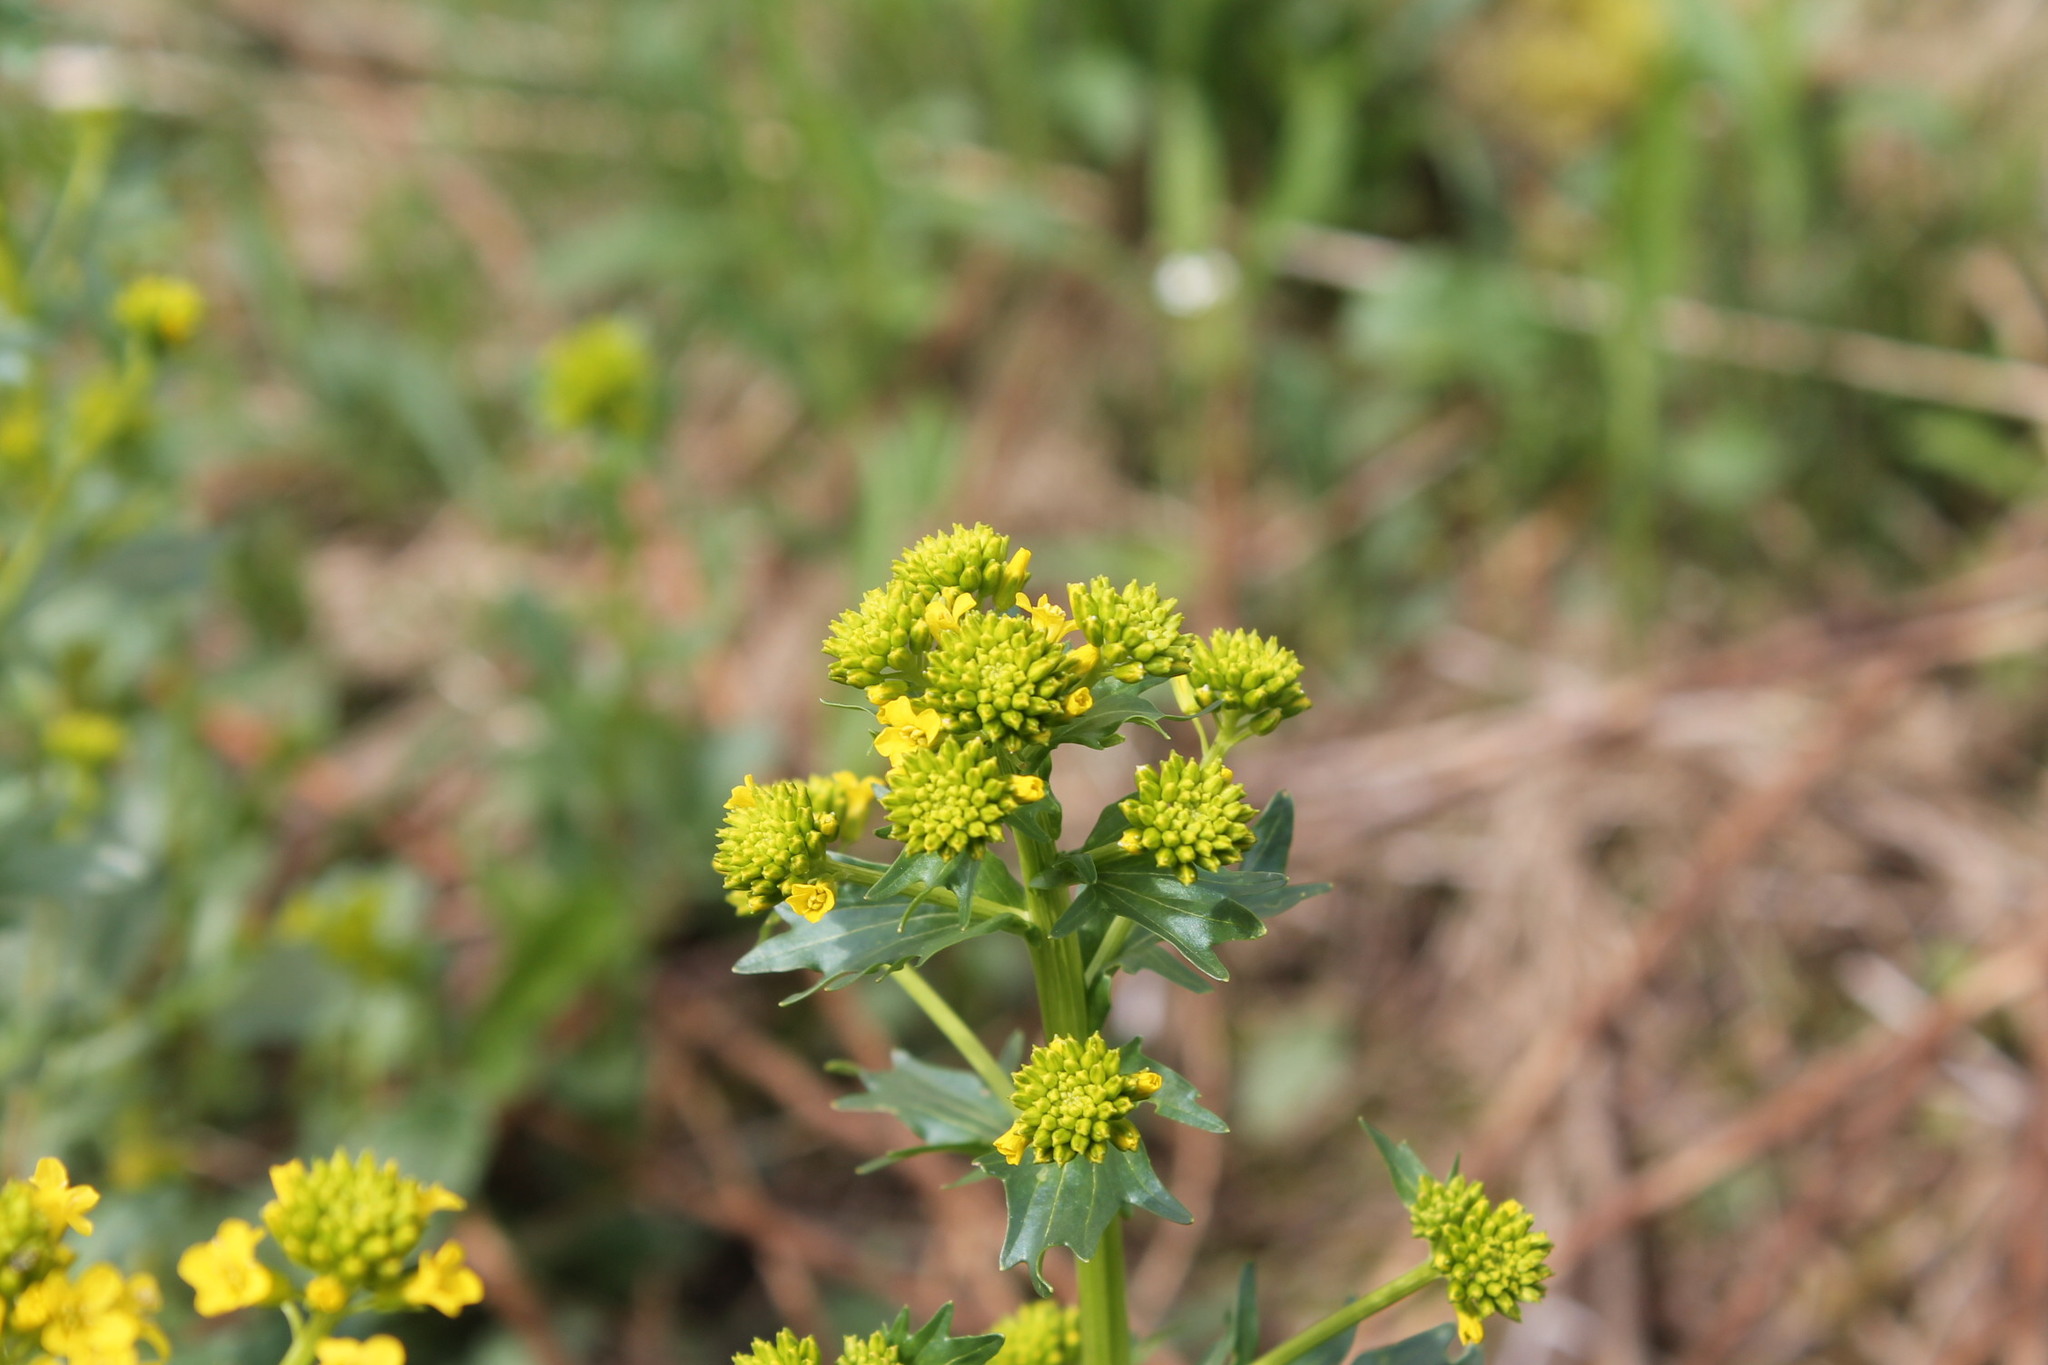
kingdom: Plantae
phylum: Tracheophyta
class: Magnoliopsida
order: Brassicales
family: Brassicaceae
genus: Barbarea
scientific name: Barbarea vulgaris
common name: Cressy-greens
